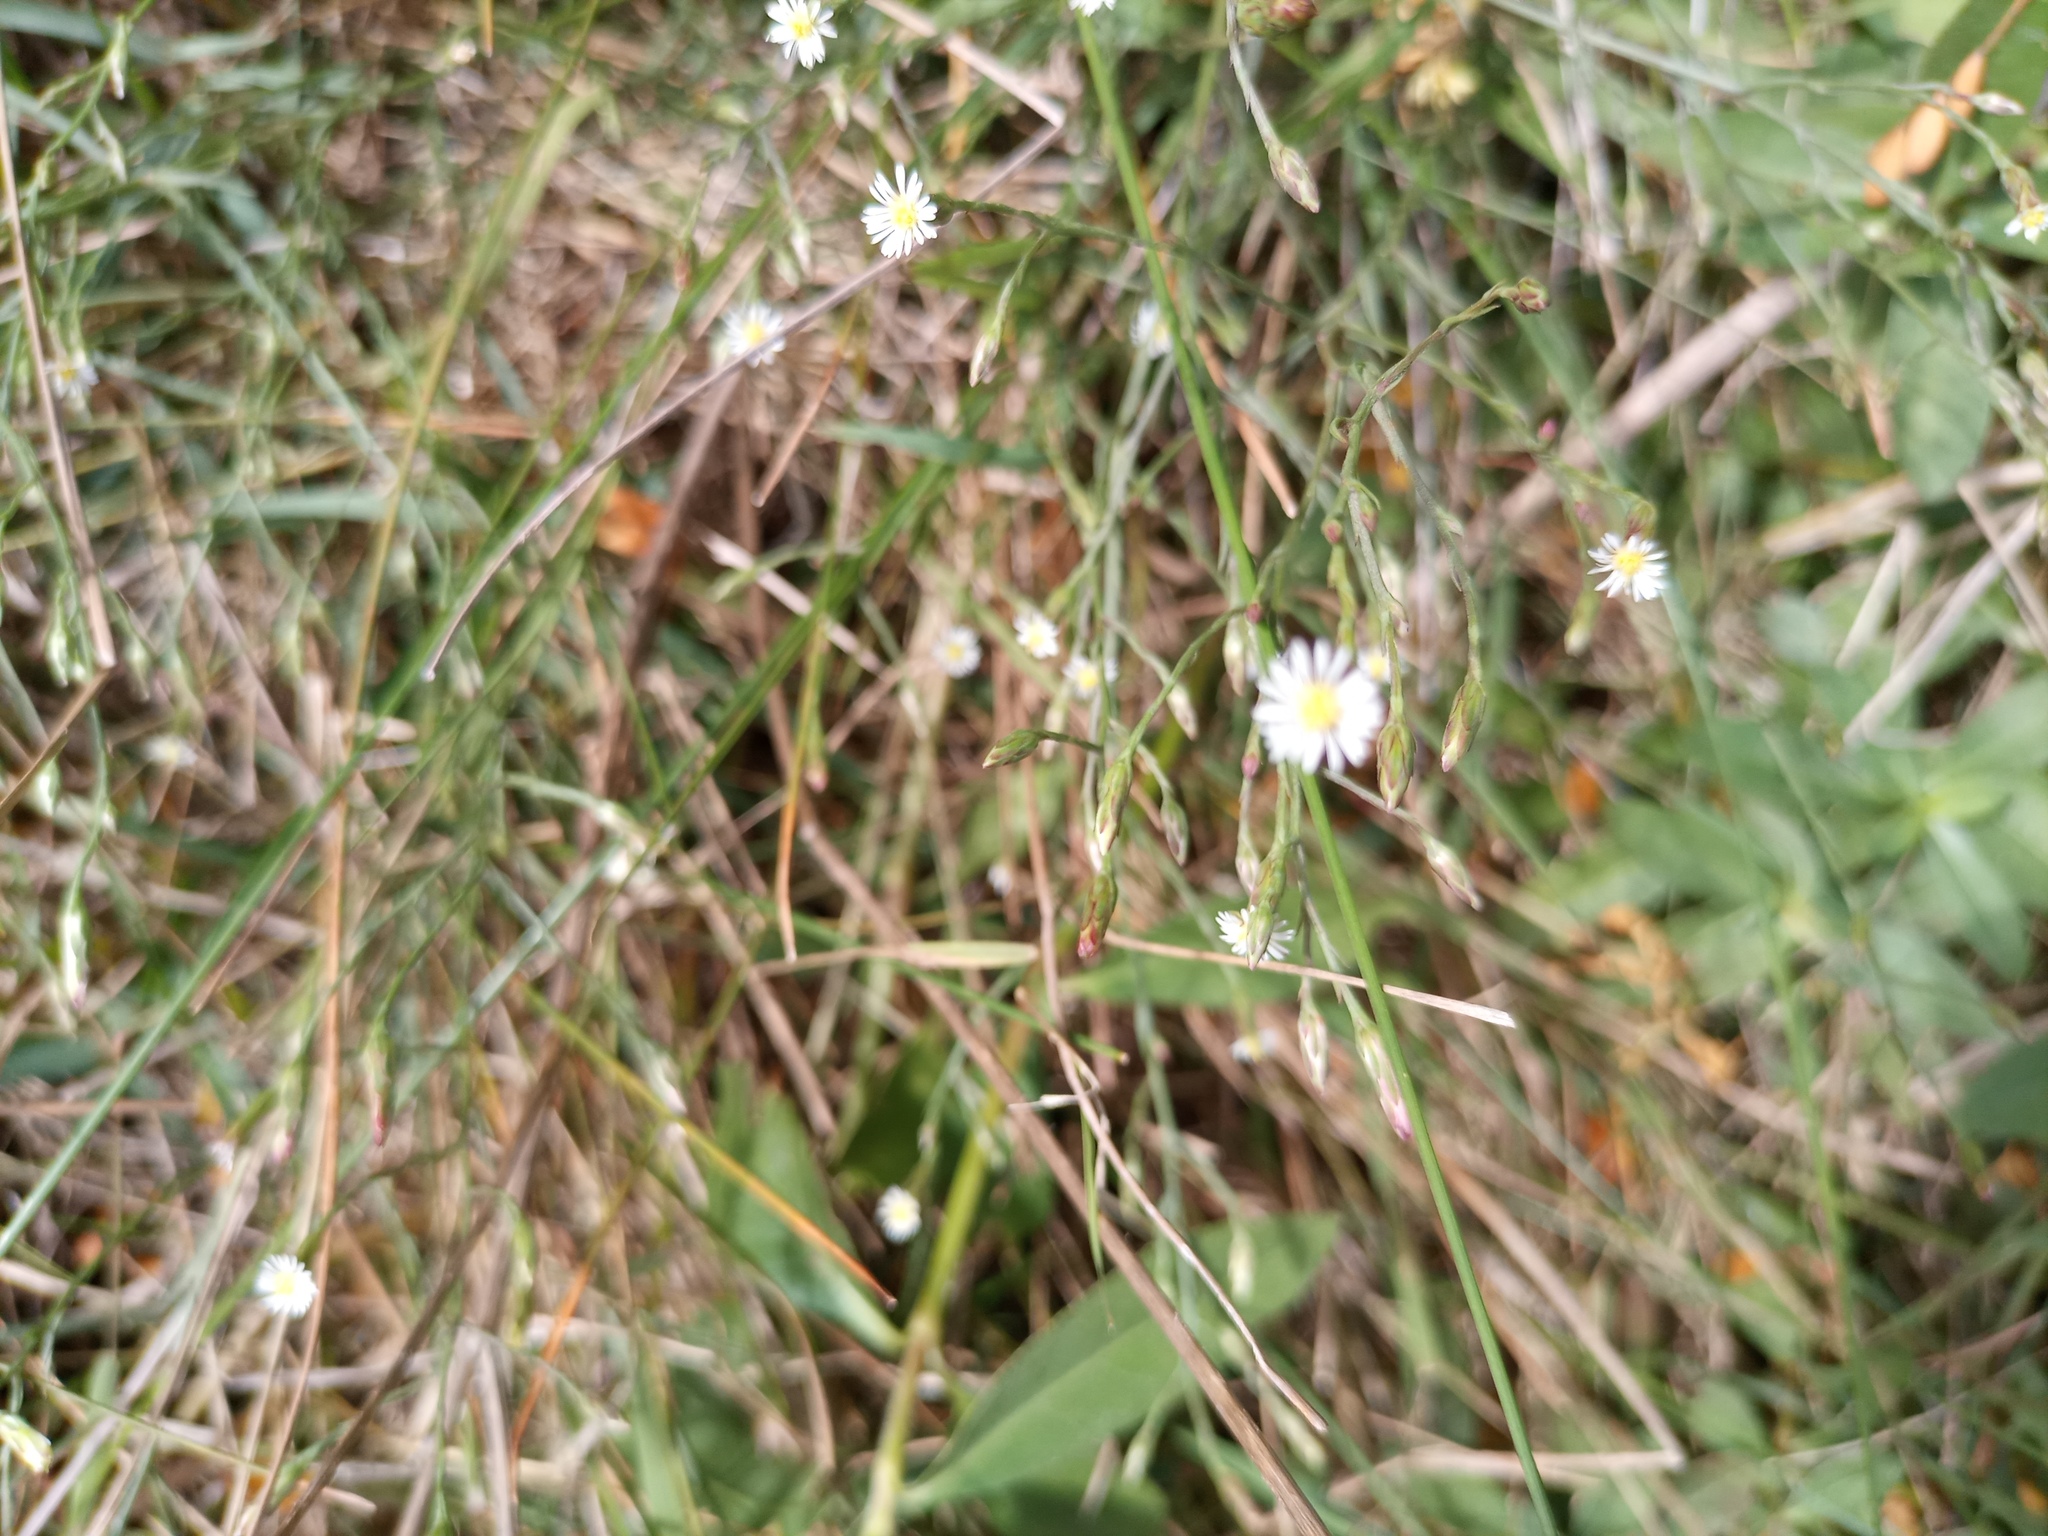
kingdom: Plantae
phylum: Tracheophyta
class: Magnoliopsida
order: Asterales
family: Asteraceae
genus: Symphyotrichum
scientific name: Symphyotrichum squamatum
